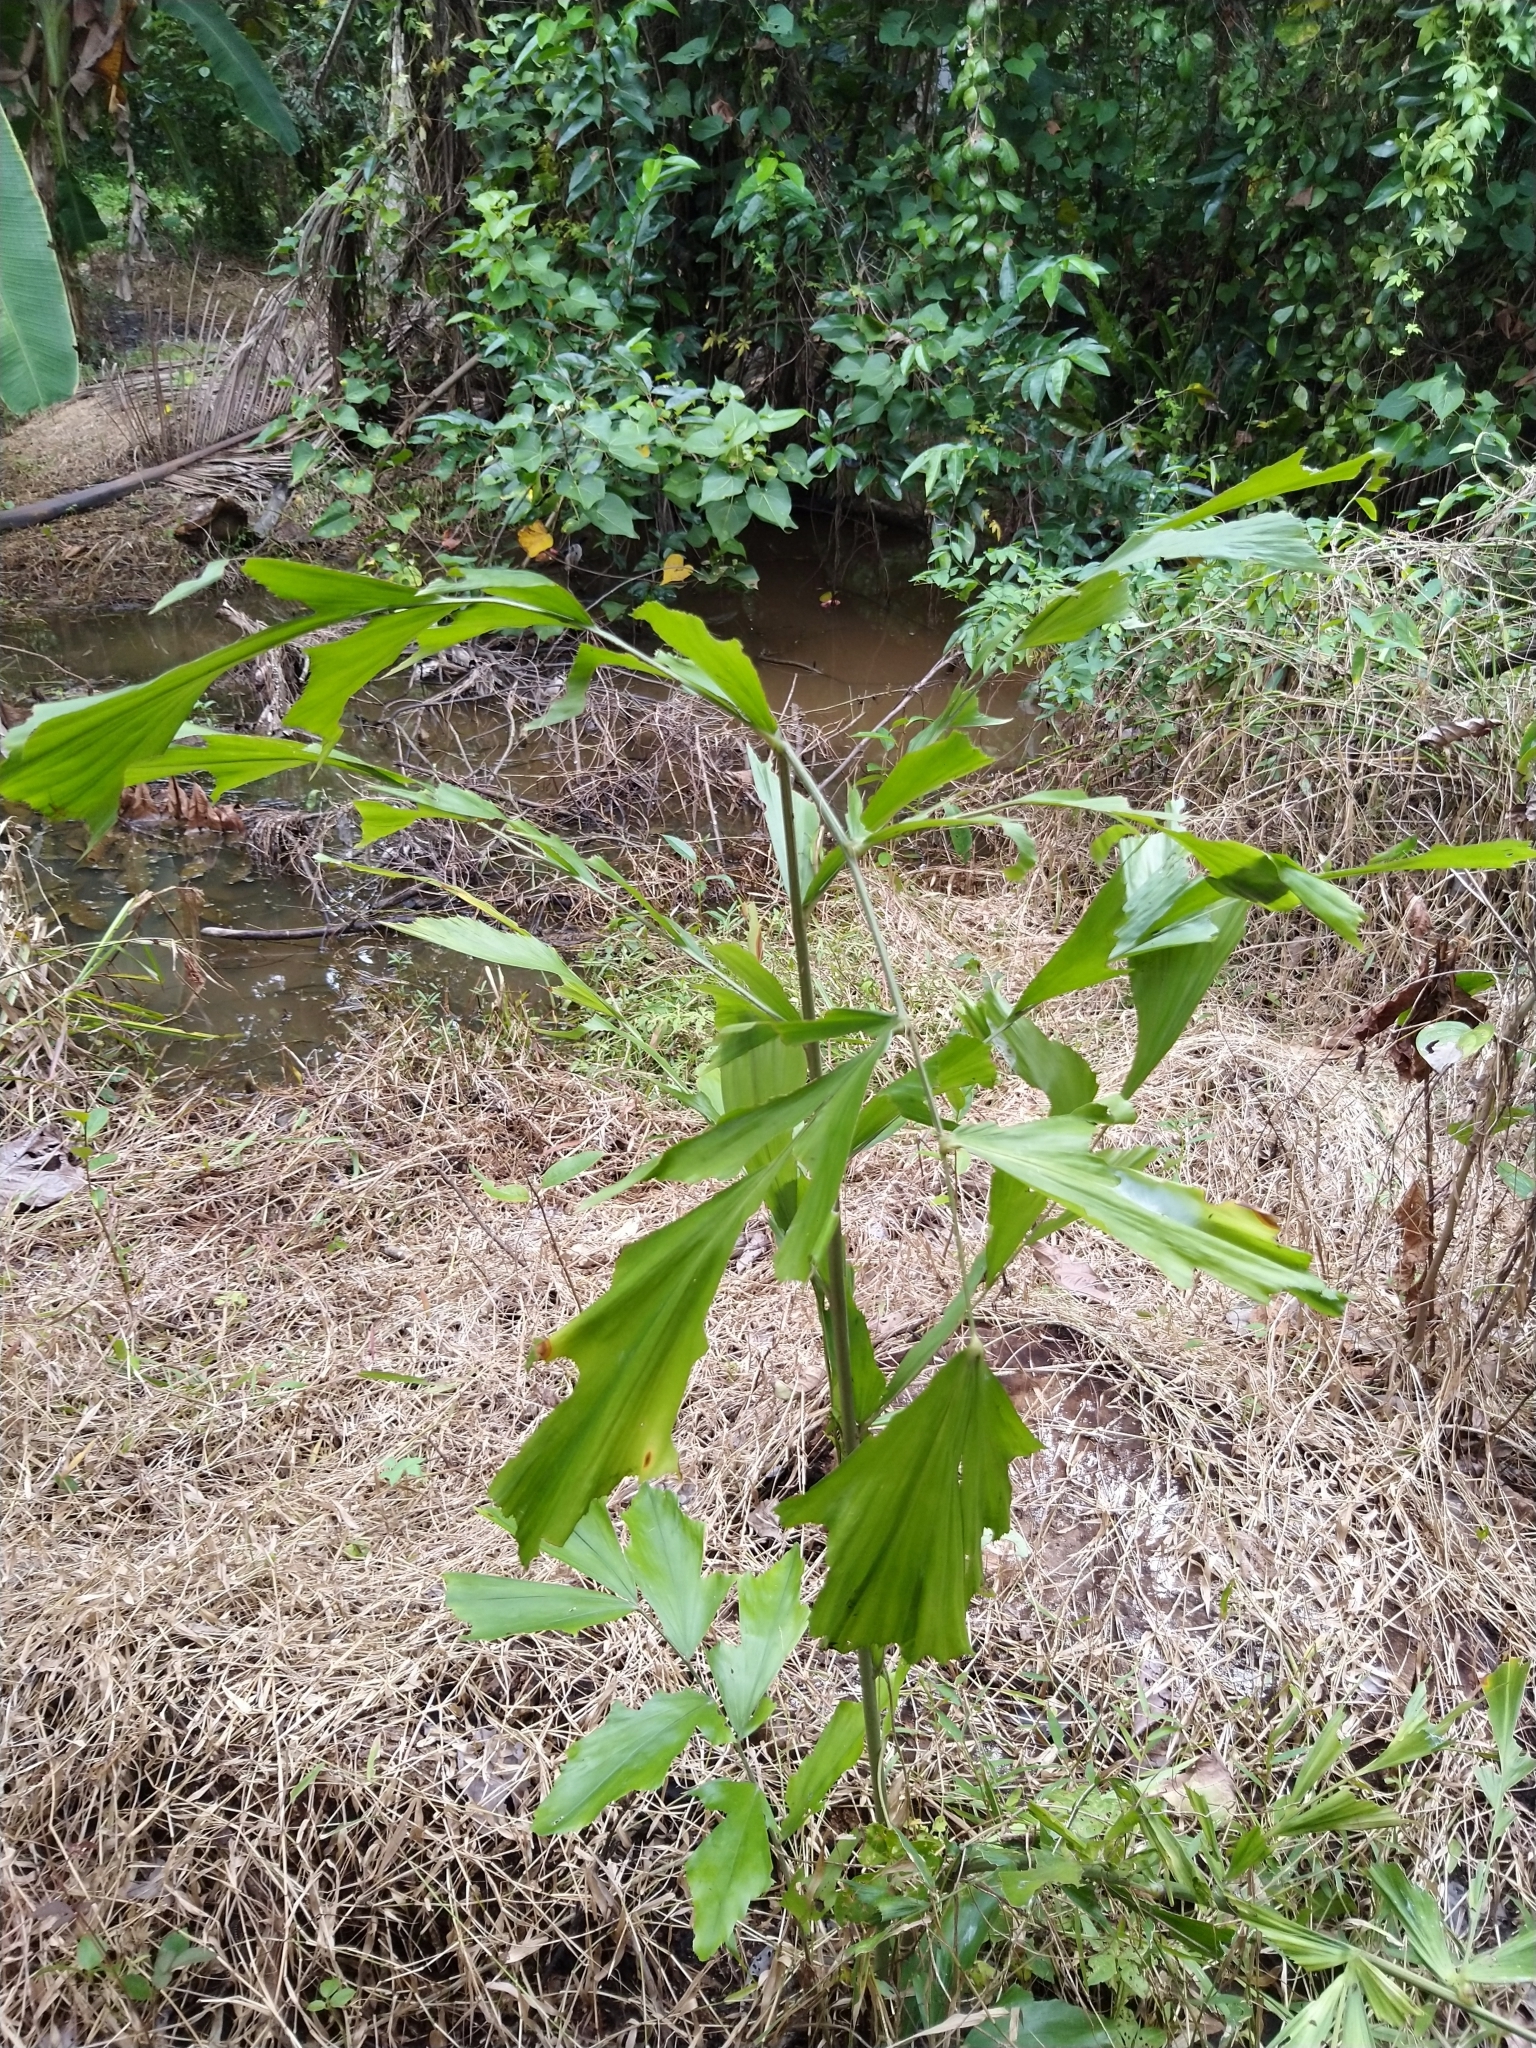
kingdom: Plantae
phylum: Tracheophyta
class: Liliopsida
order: Arecales
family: Arecaceae
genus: Caryota
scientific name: Caryota urens
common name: Jaggery palm
